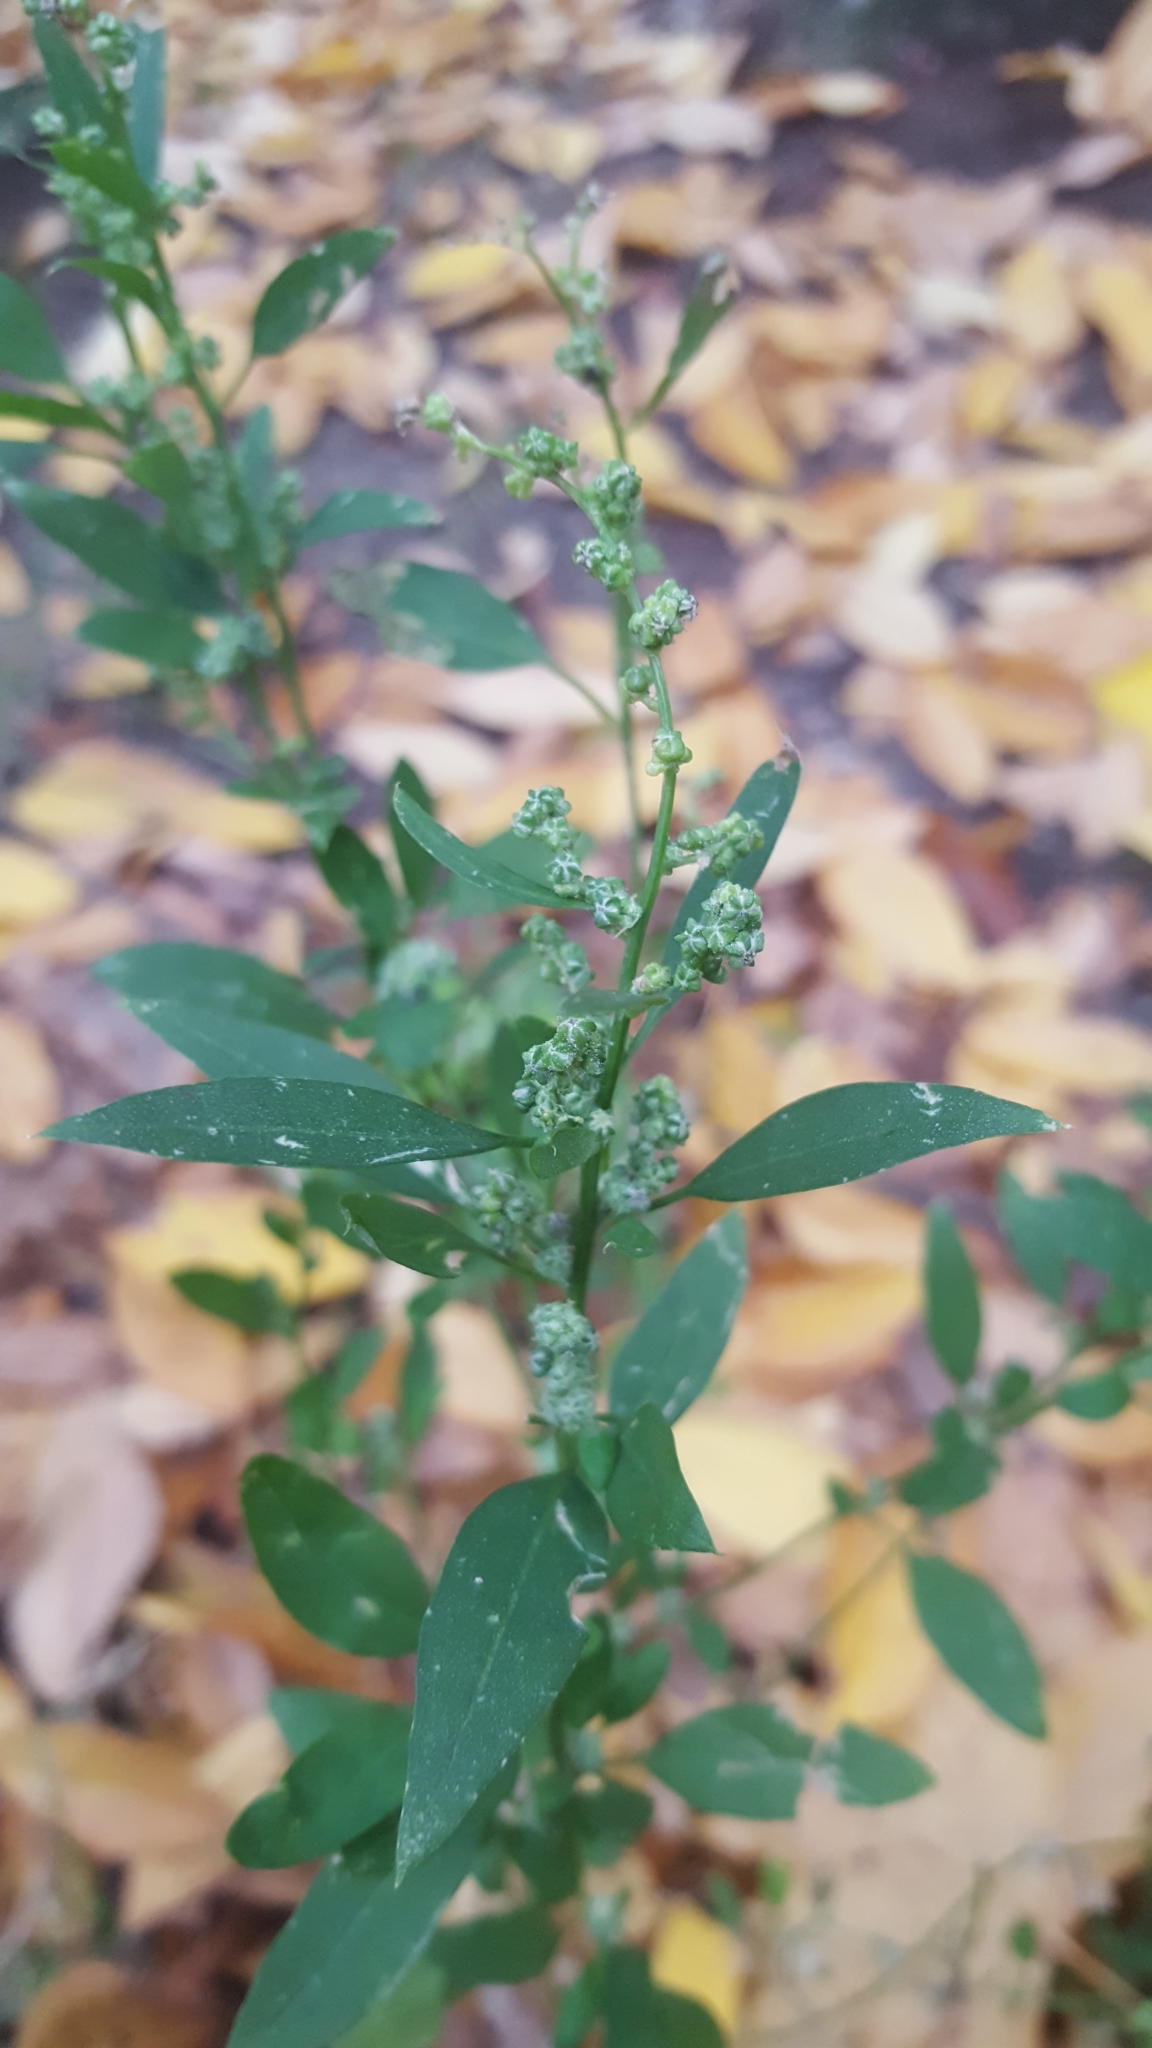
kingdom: Plantae
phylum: Tracheophyta
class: Magnoliopsida
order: Caryophyllales
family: Amaranthaceae
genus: Chenopodium
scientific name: Chenopodium album
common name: Fat-hen
